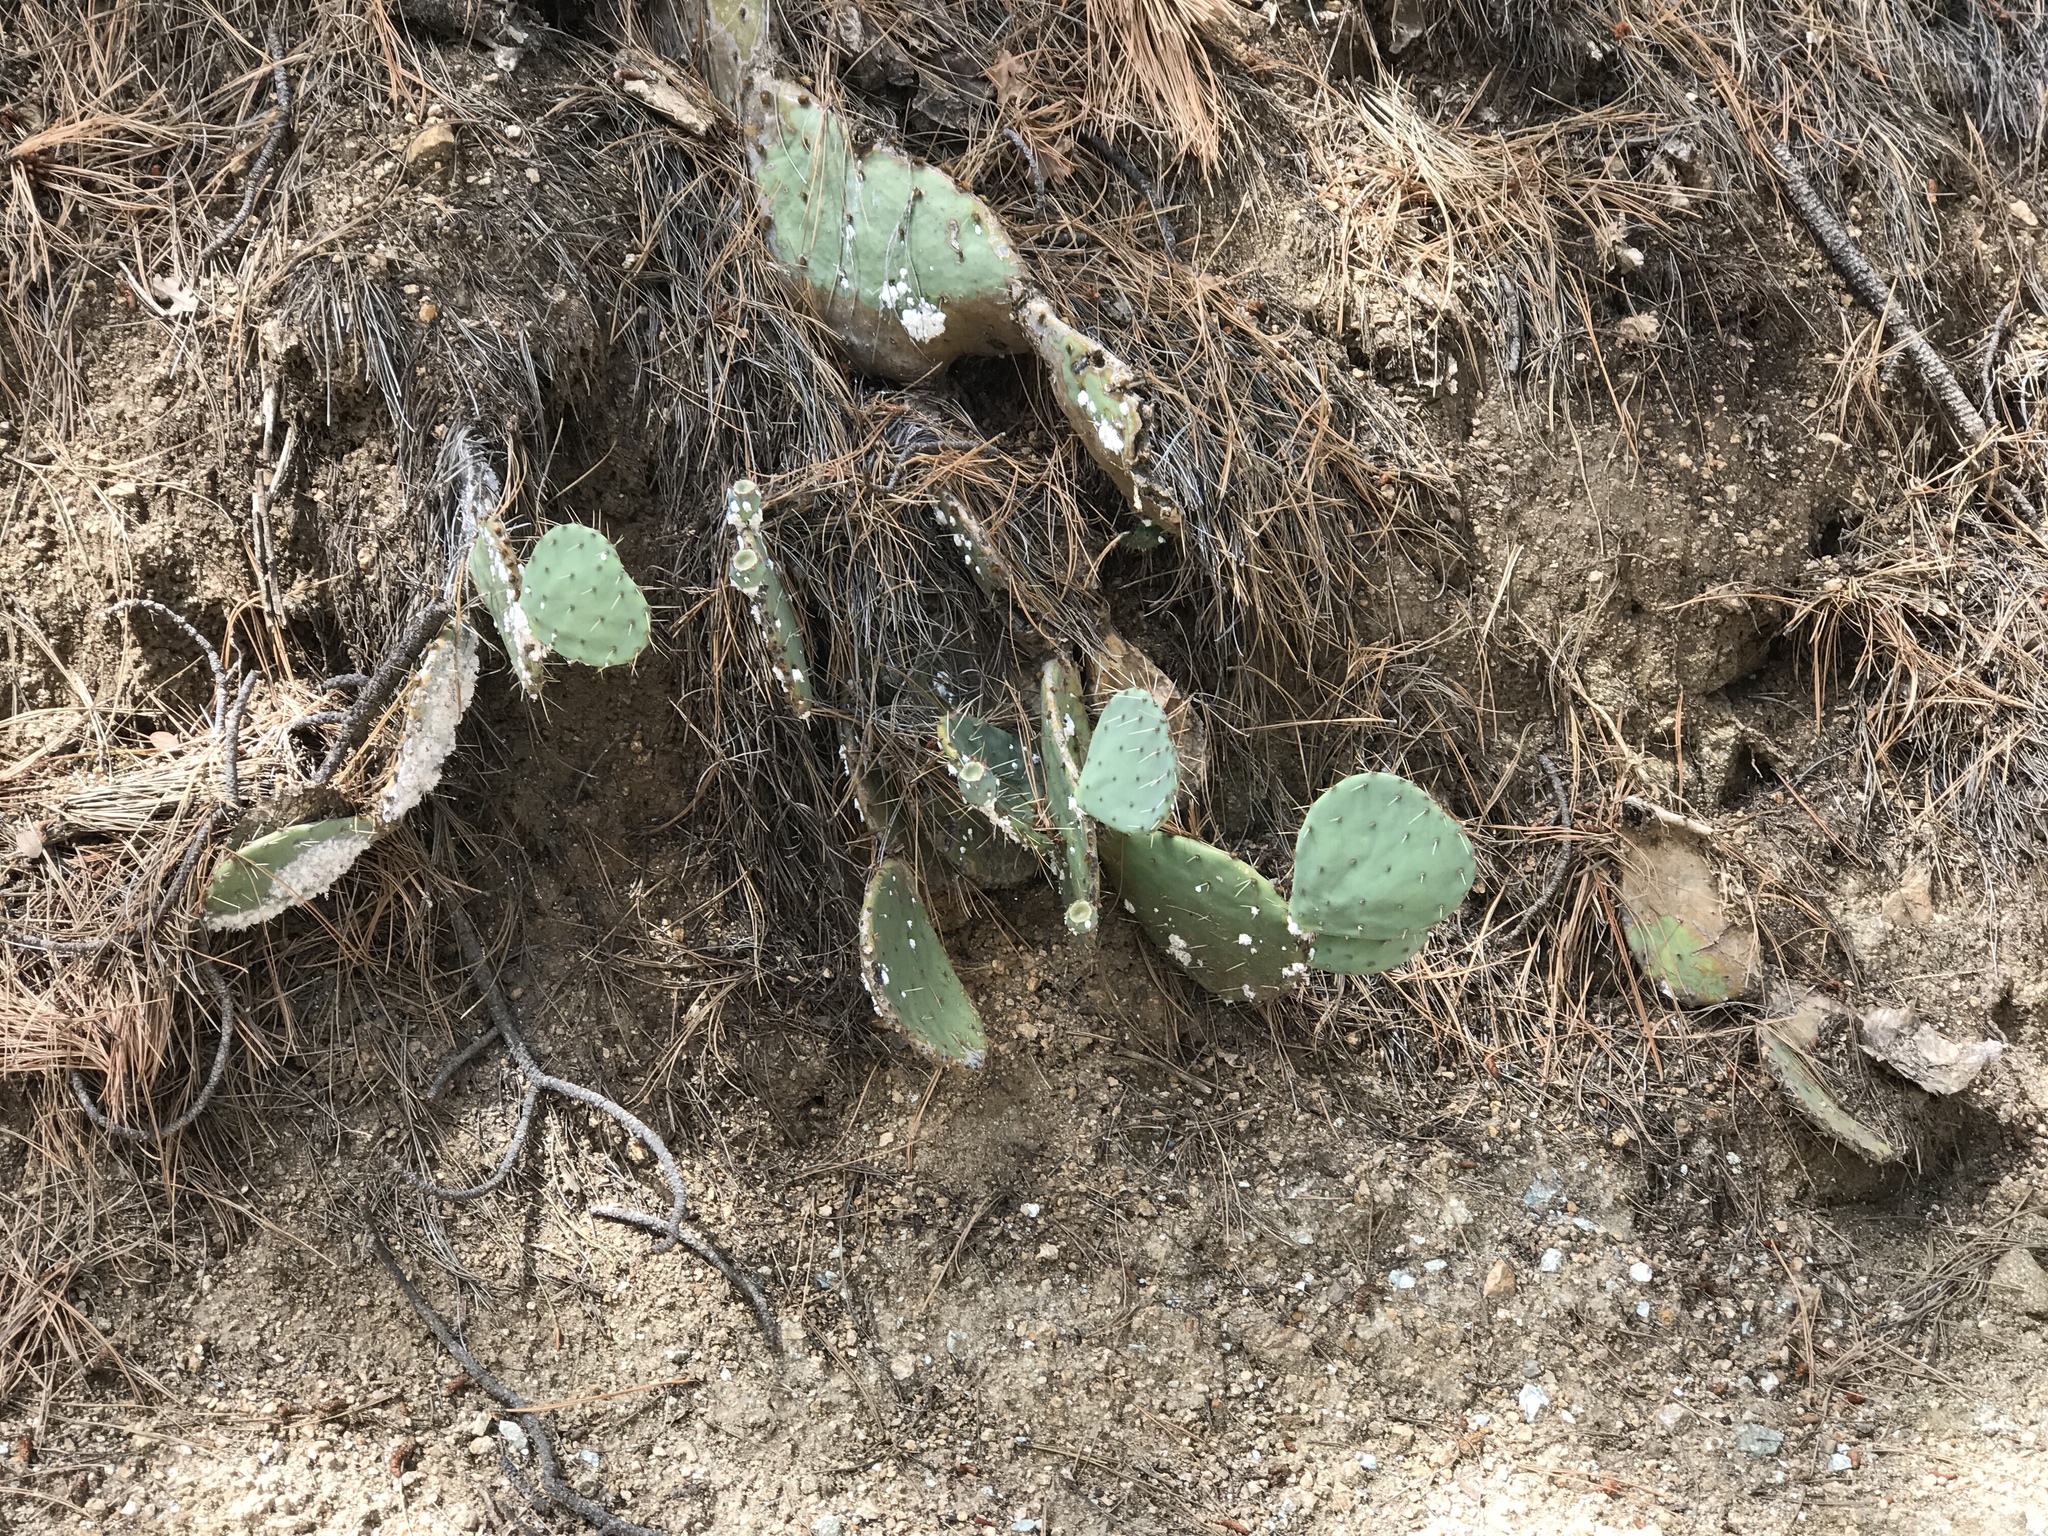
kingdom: Plantae
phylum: Tracheophyta
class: Magnoliopsida
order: Caryophyllales
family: Cactaceae
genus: Opuntia
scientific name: Opuntia phaeacantha
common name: New mexico prickly-pear
